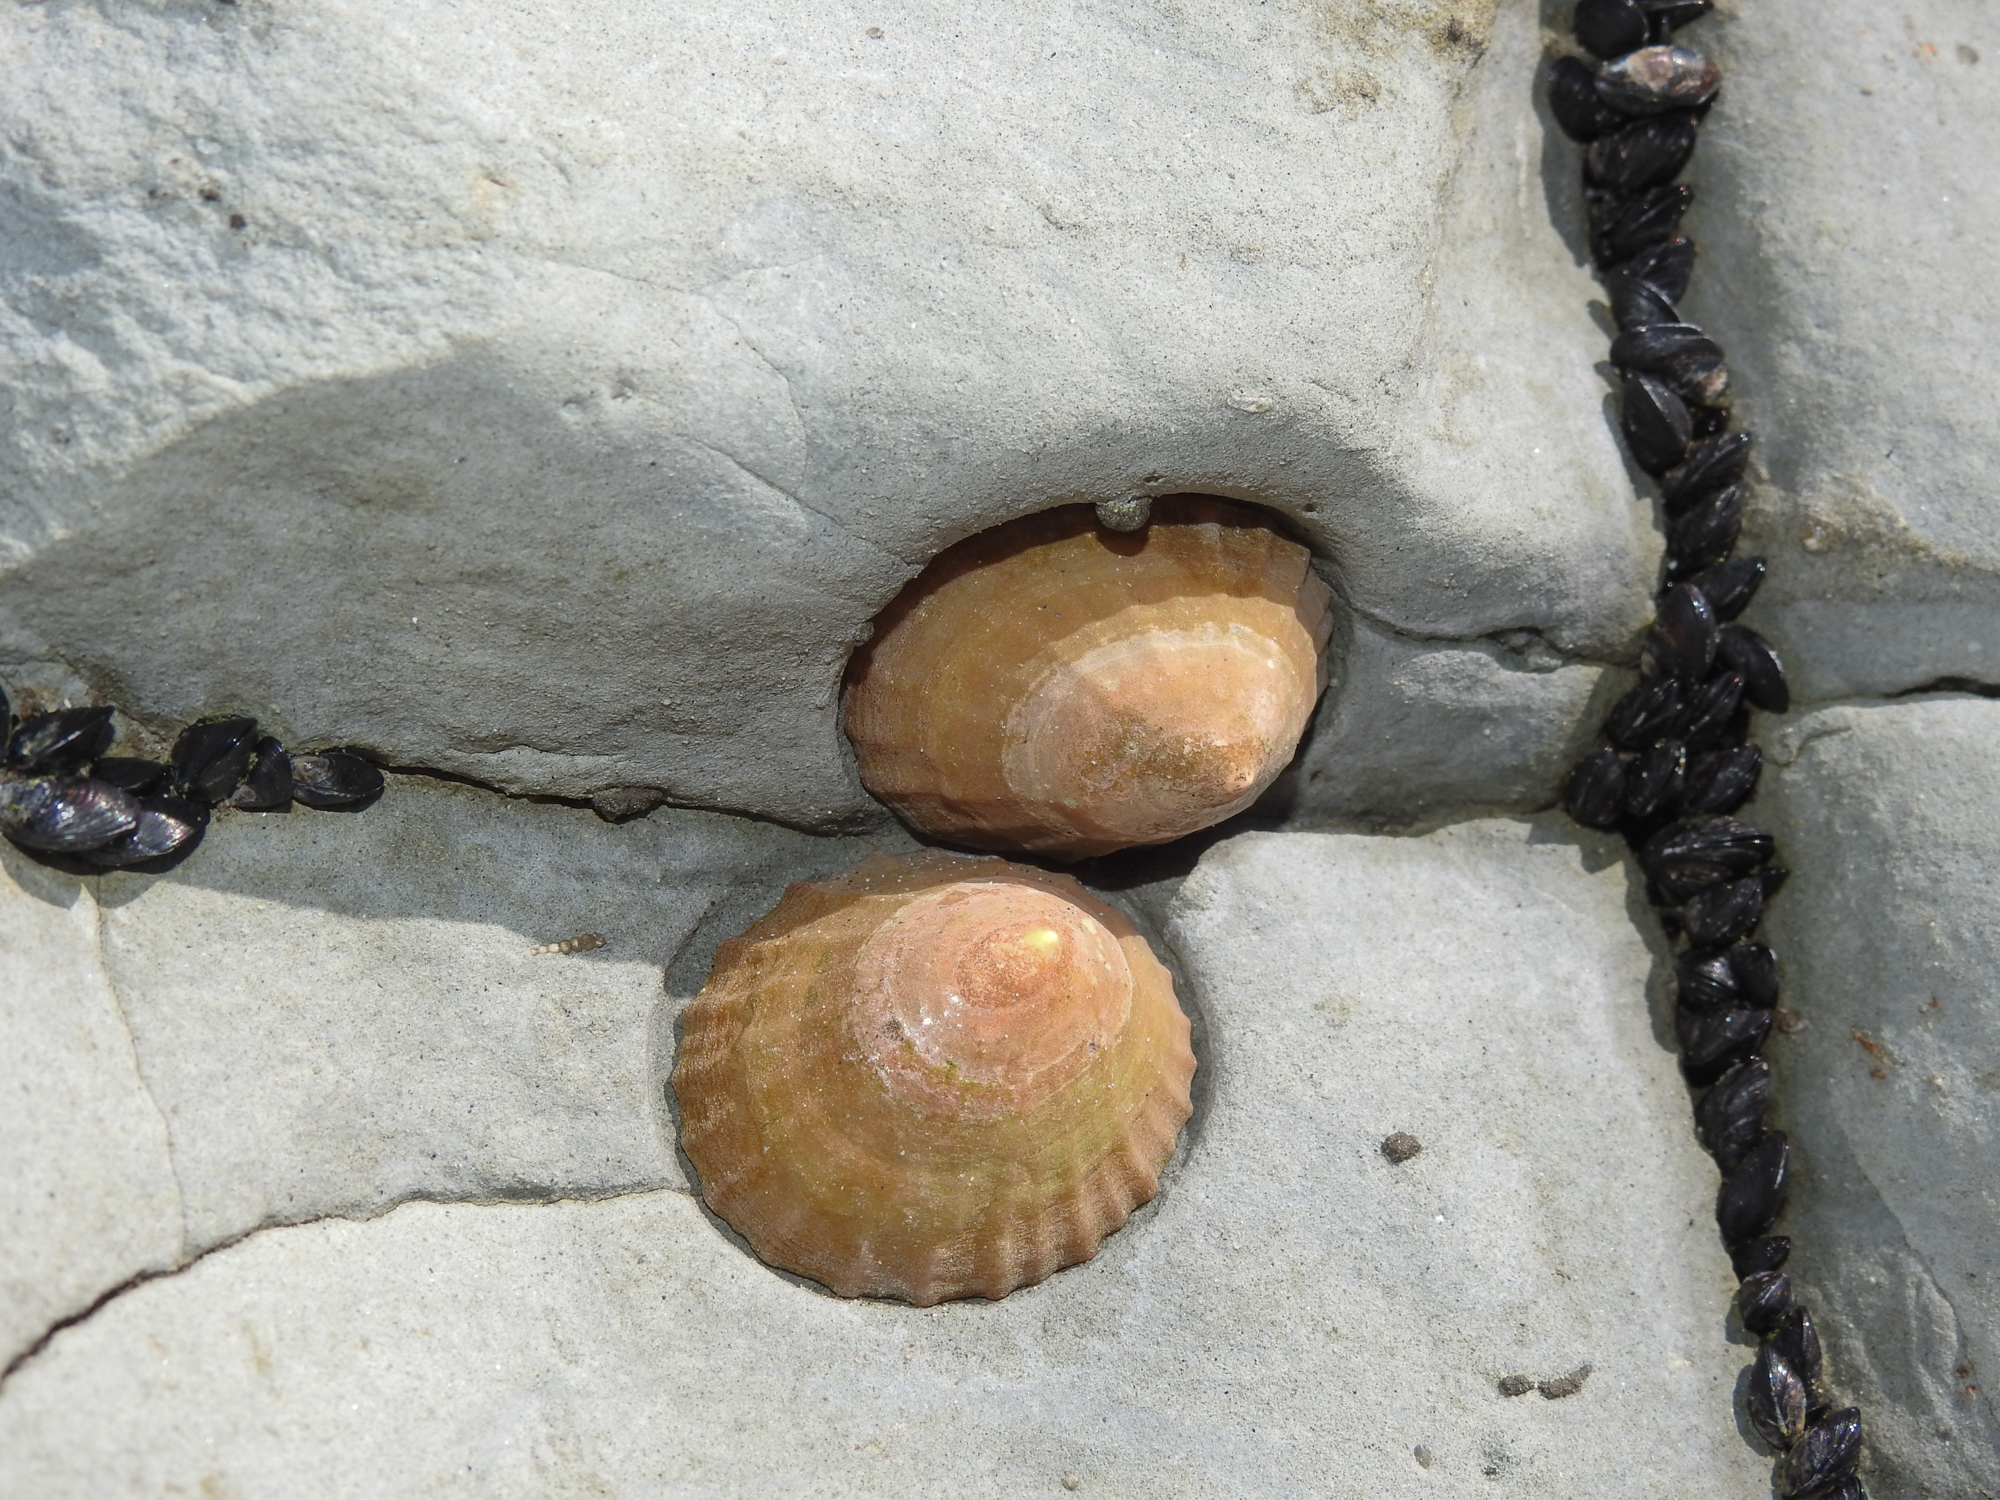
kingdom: Animalia
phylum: Mollusca
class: Gastropoda
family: Nacellidae
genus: Cellana
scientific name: Cellana flava
